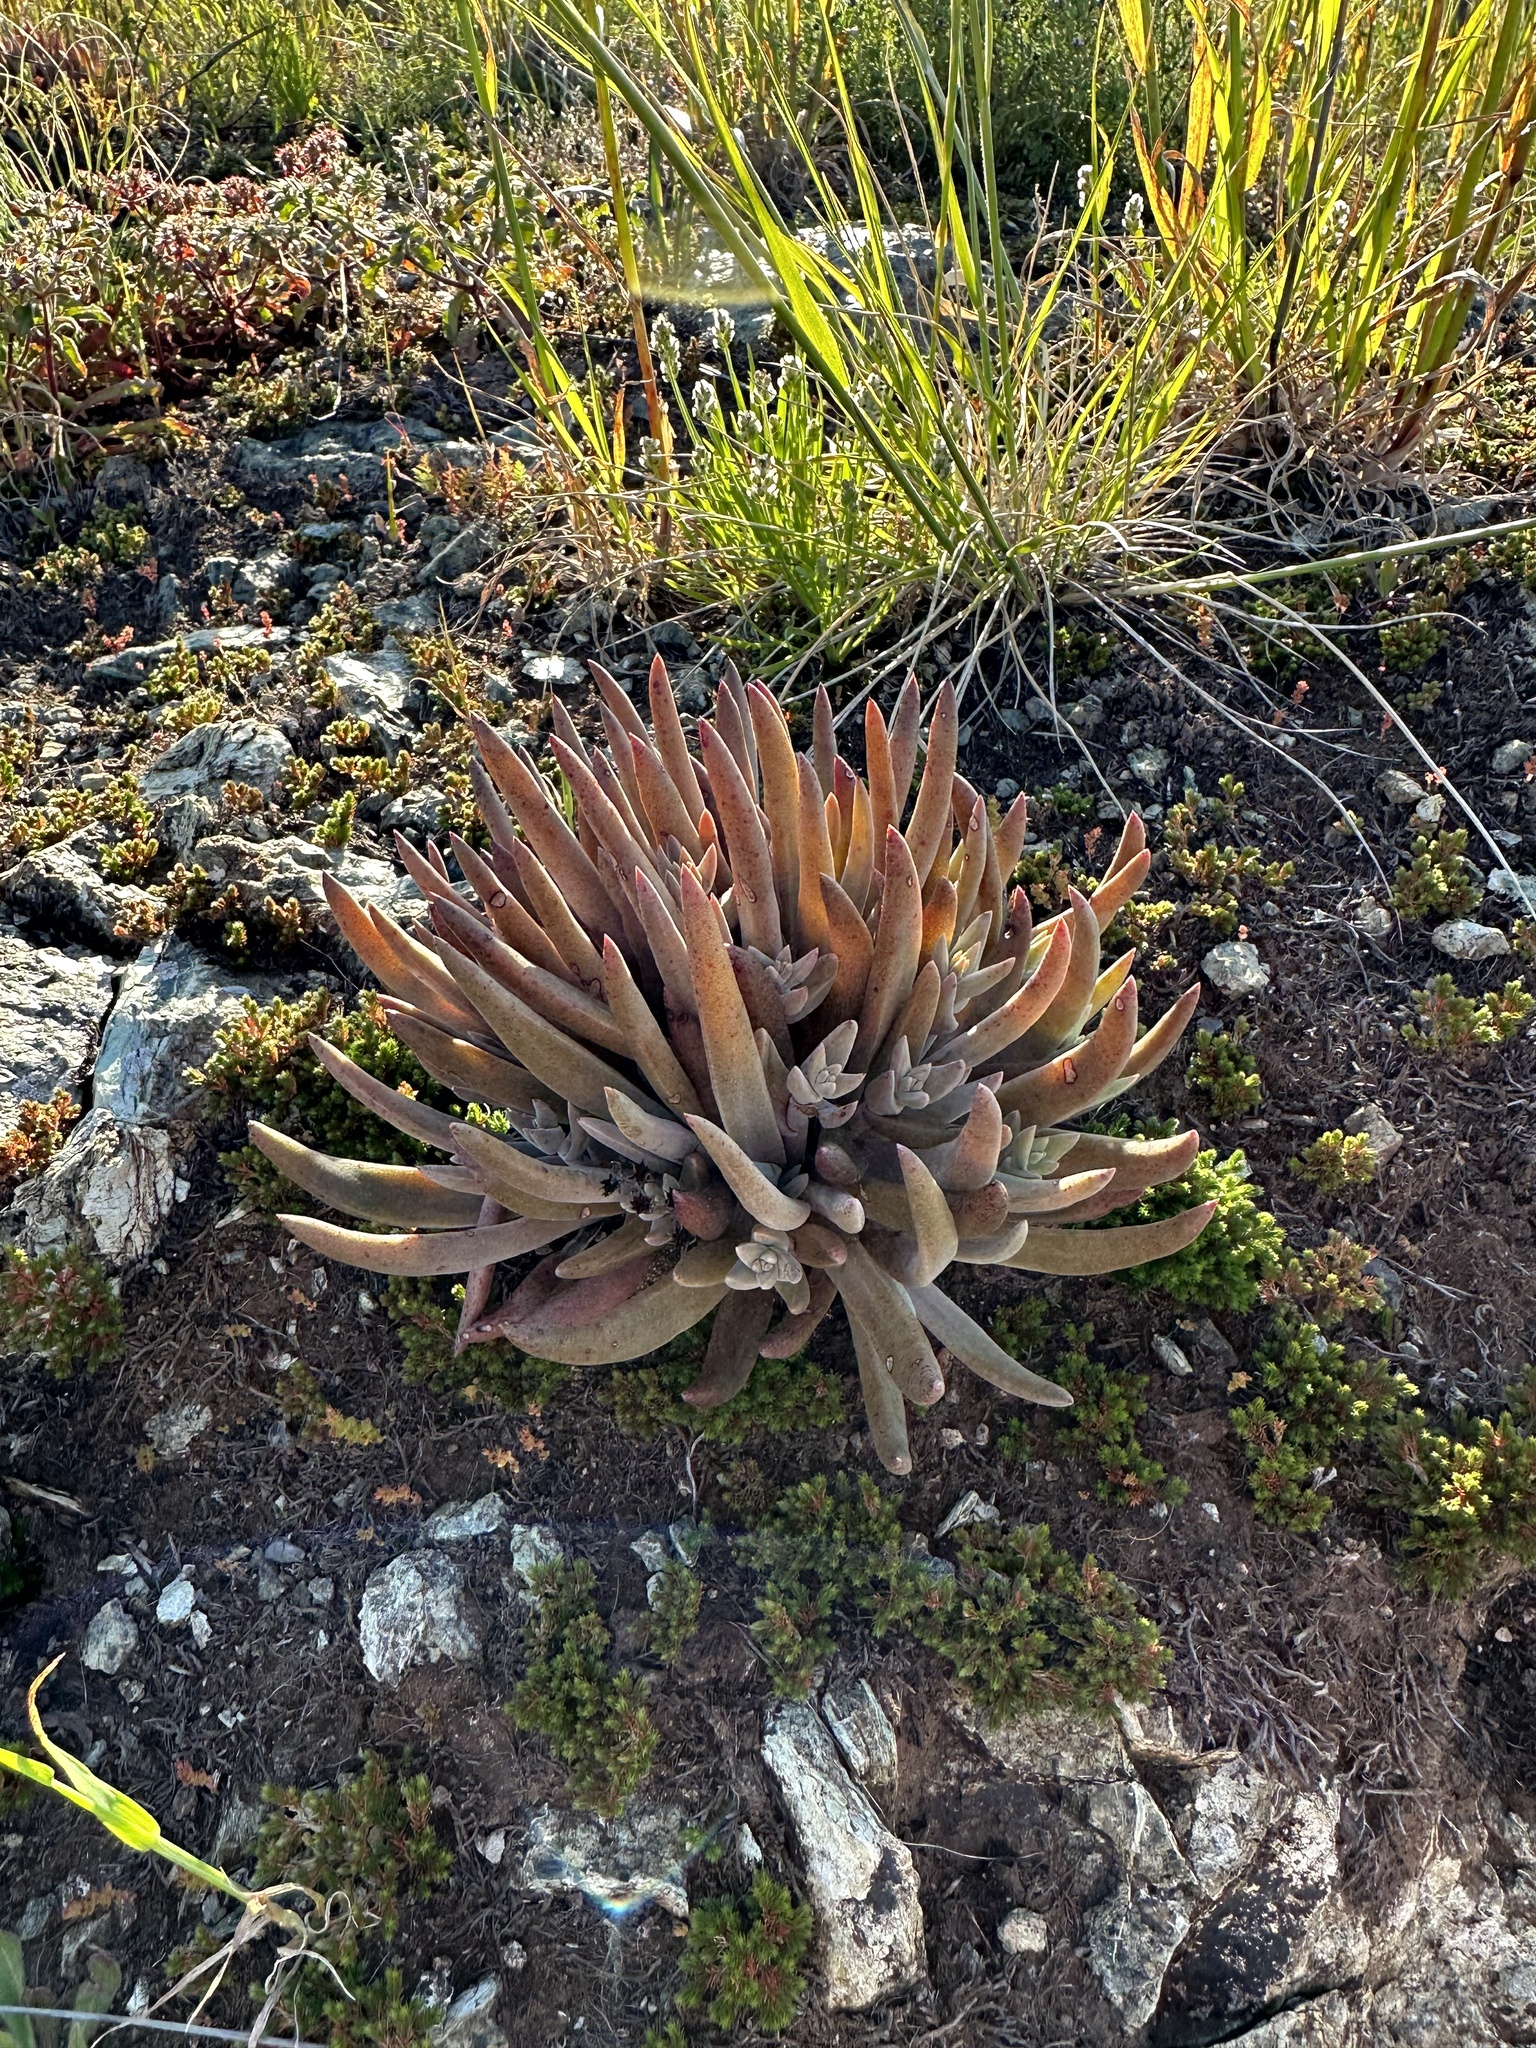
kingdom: Plantae
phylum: Tracheophyta
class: Magnoliopsida
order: Saxifragales
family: Crassulaceae
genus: Dudleya
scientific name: Dudleya abramsii
